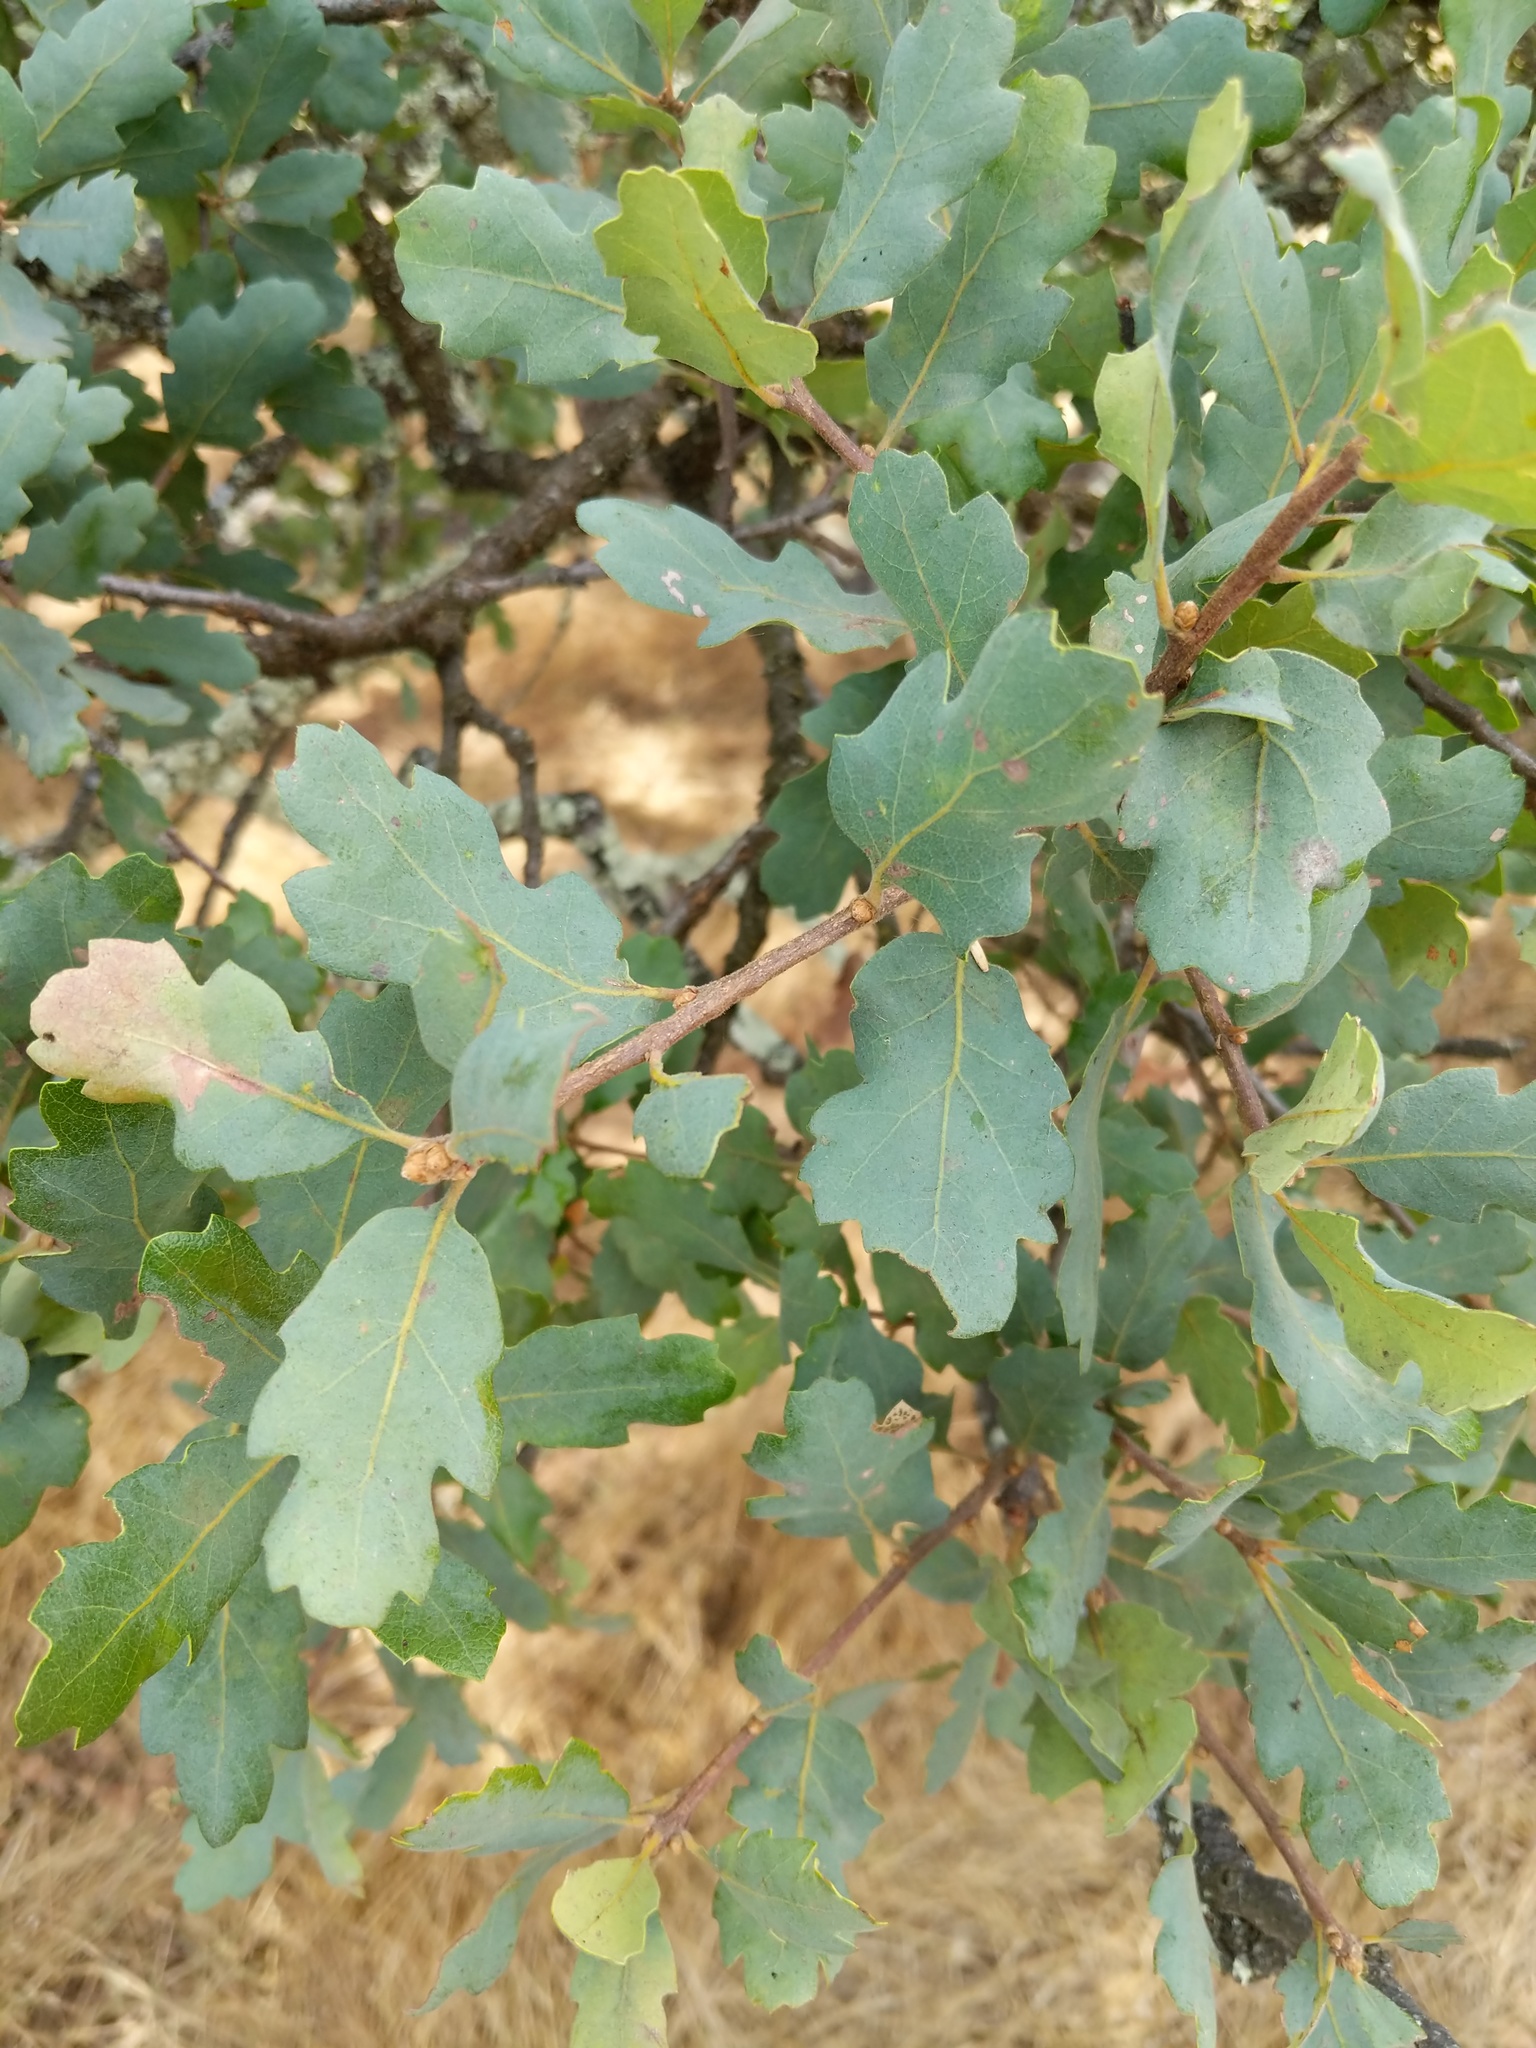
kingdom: Plantae
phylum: Tracheophyta
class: Magnoliopsida
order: Fagales
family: Fagaceae
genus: Quercus
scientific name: Quercus douglasii
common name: Blue oak
